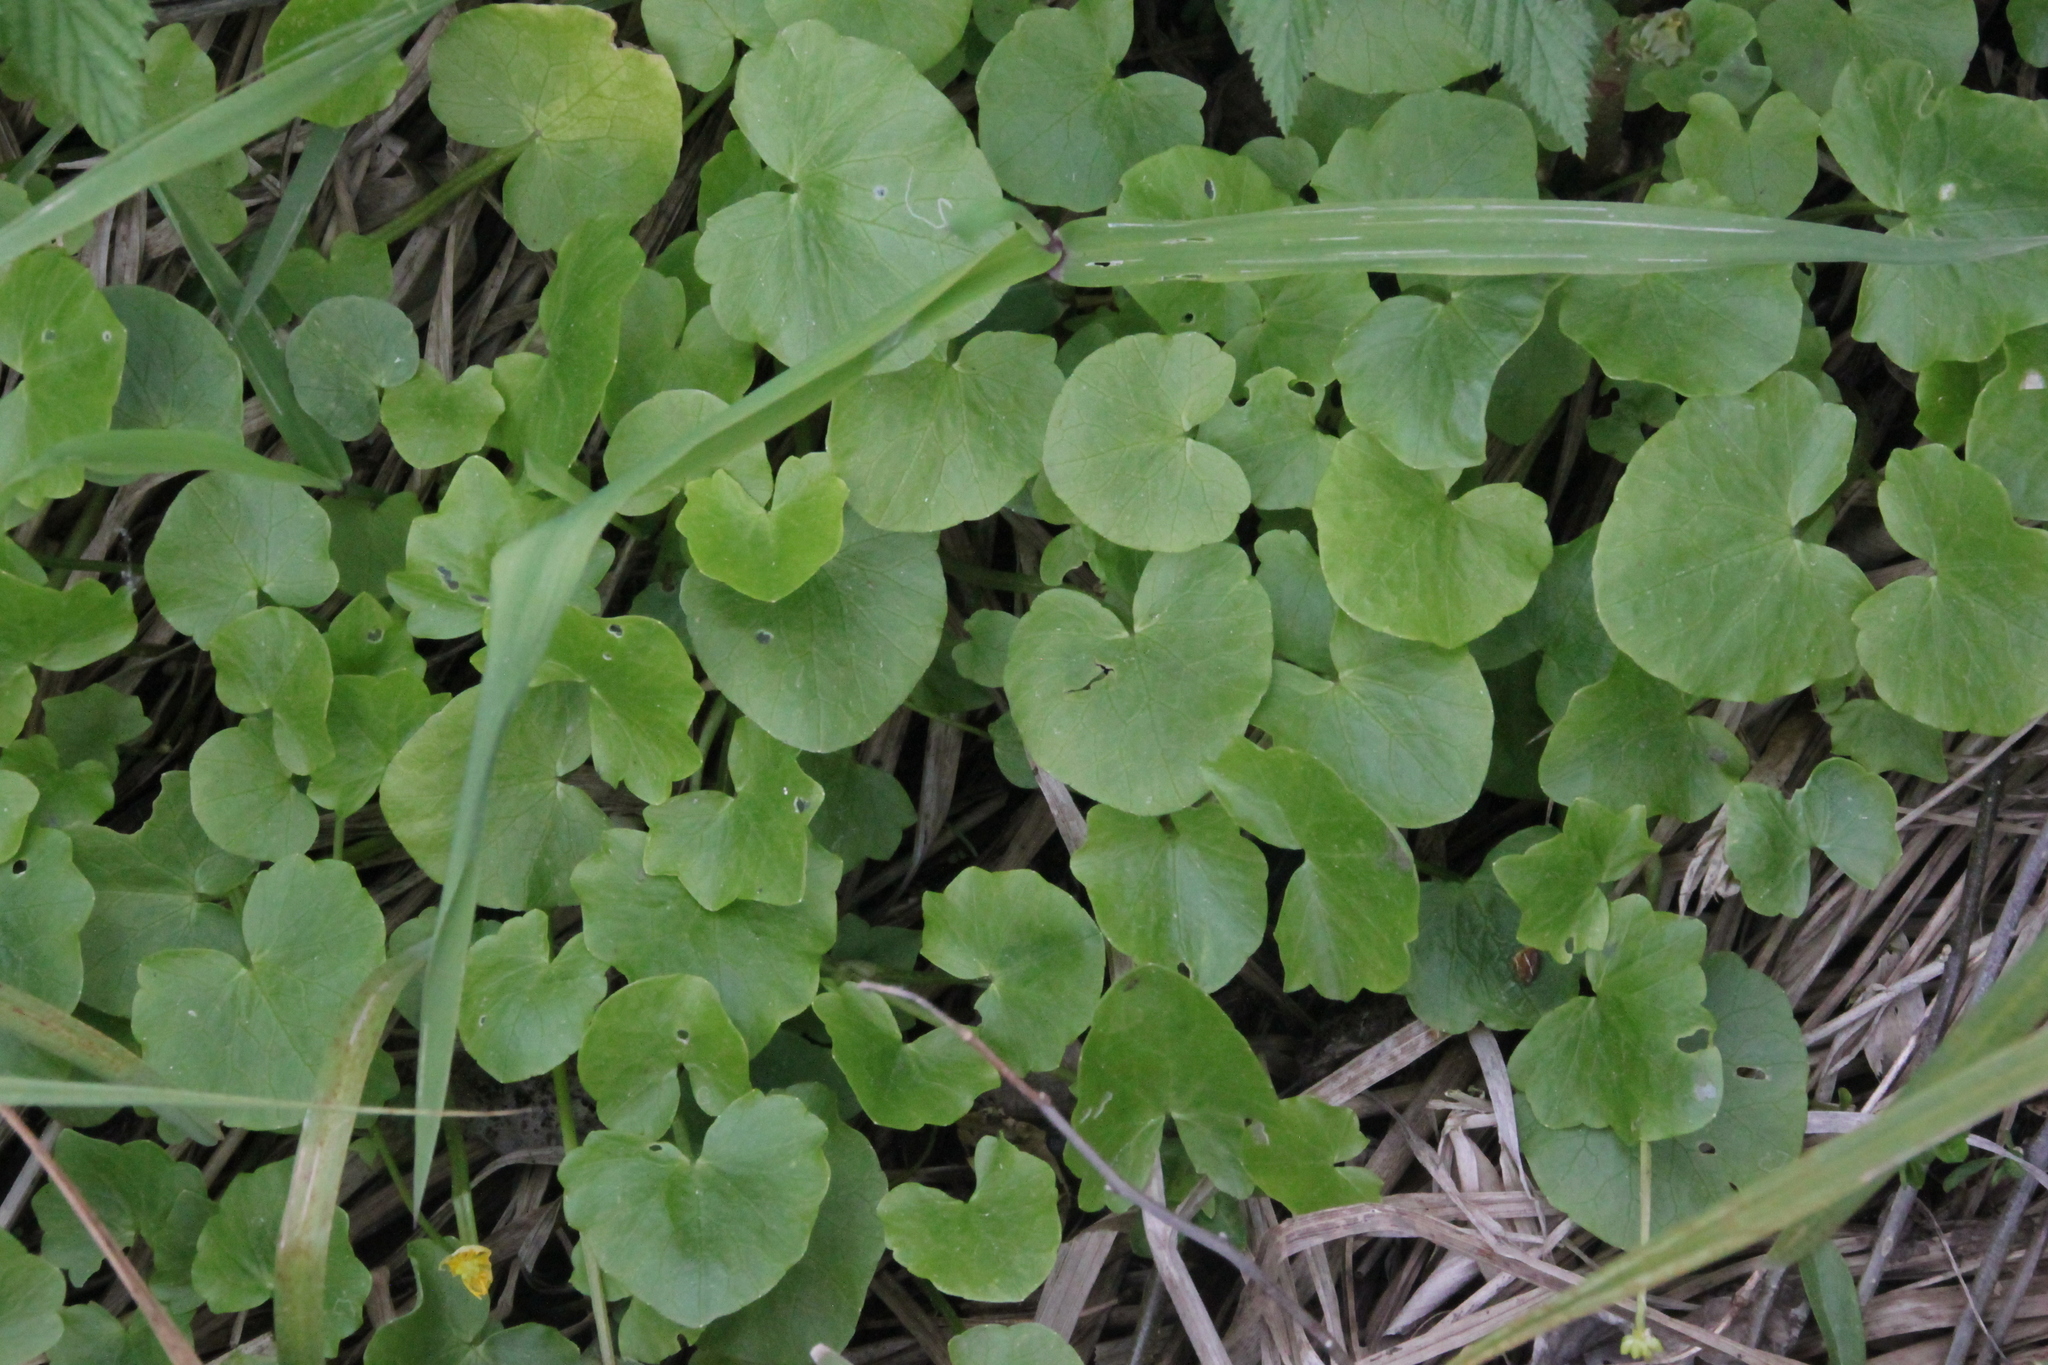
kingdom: Plantae
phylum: Tracheophyta
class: Magnoliopsida
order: Ranunculales
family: Ranunculaceae
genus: Ficaria
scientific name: Ficaria verna
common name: Lesser celandine
